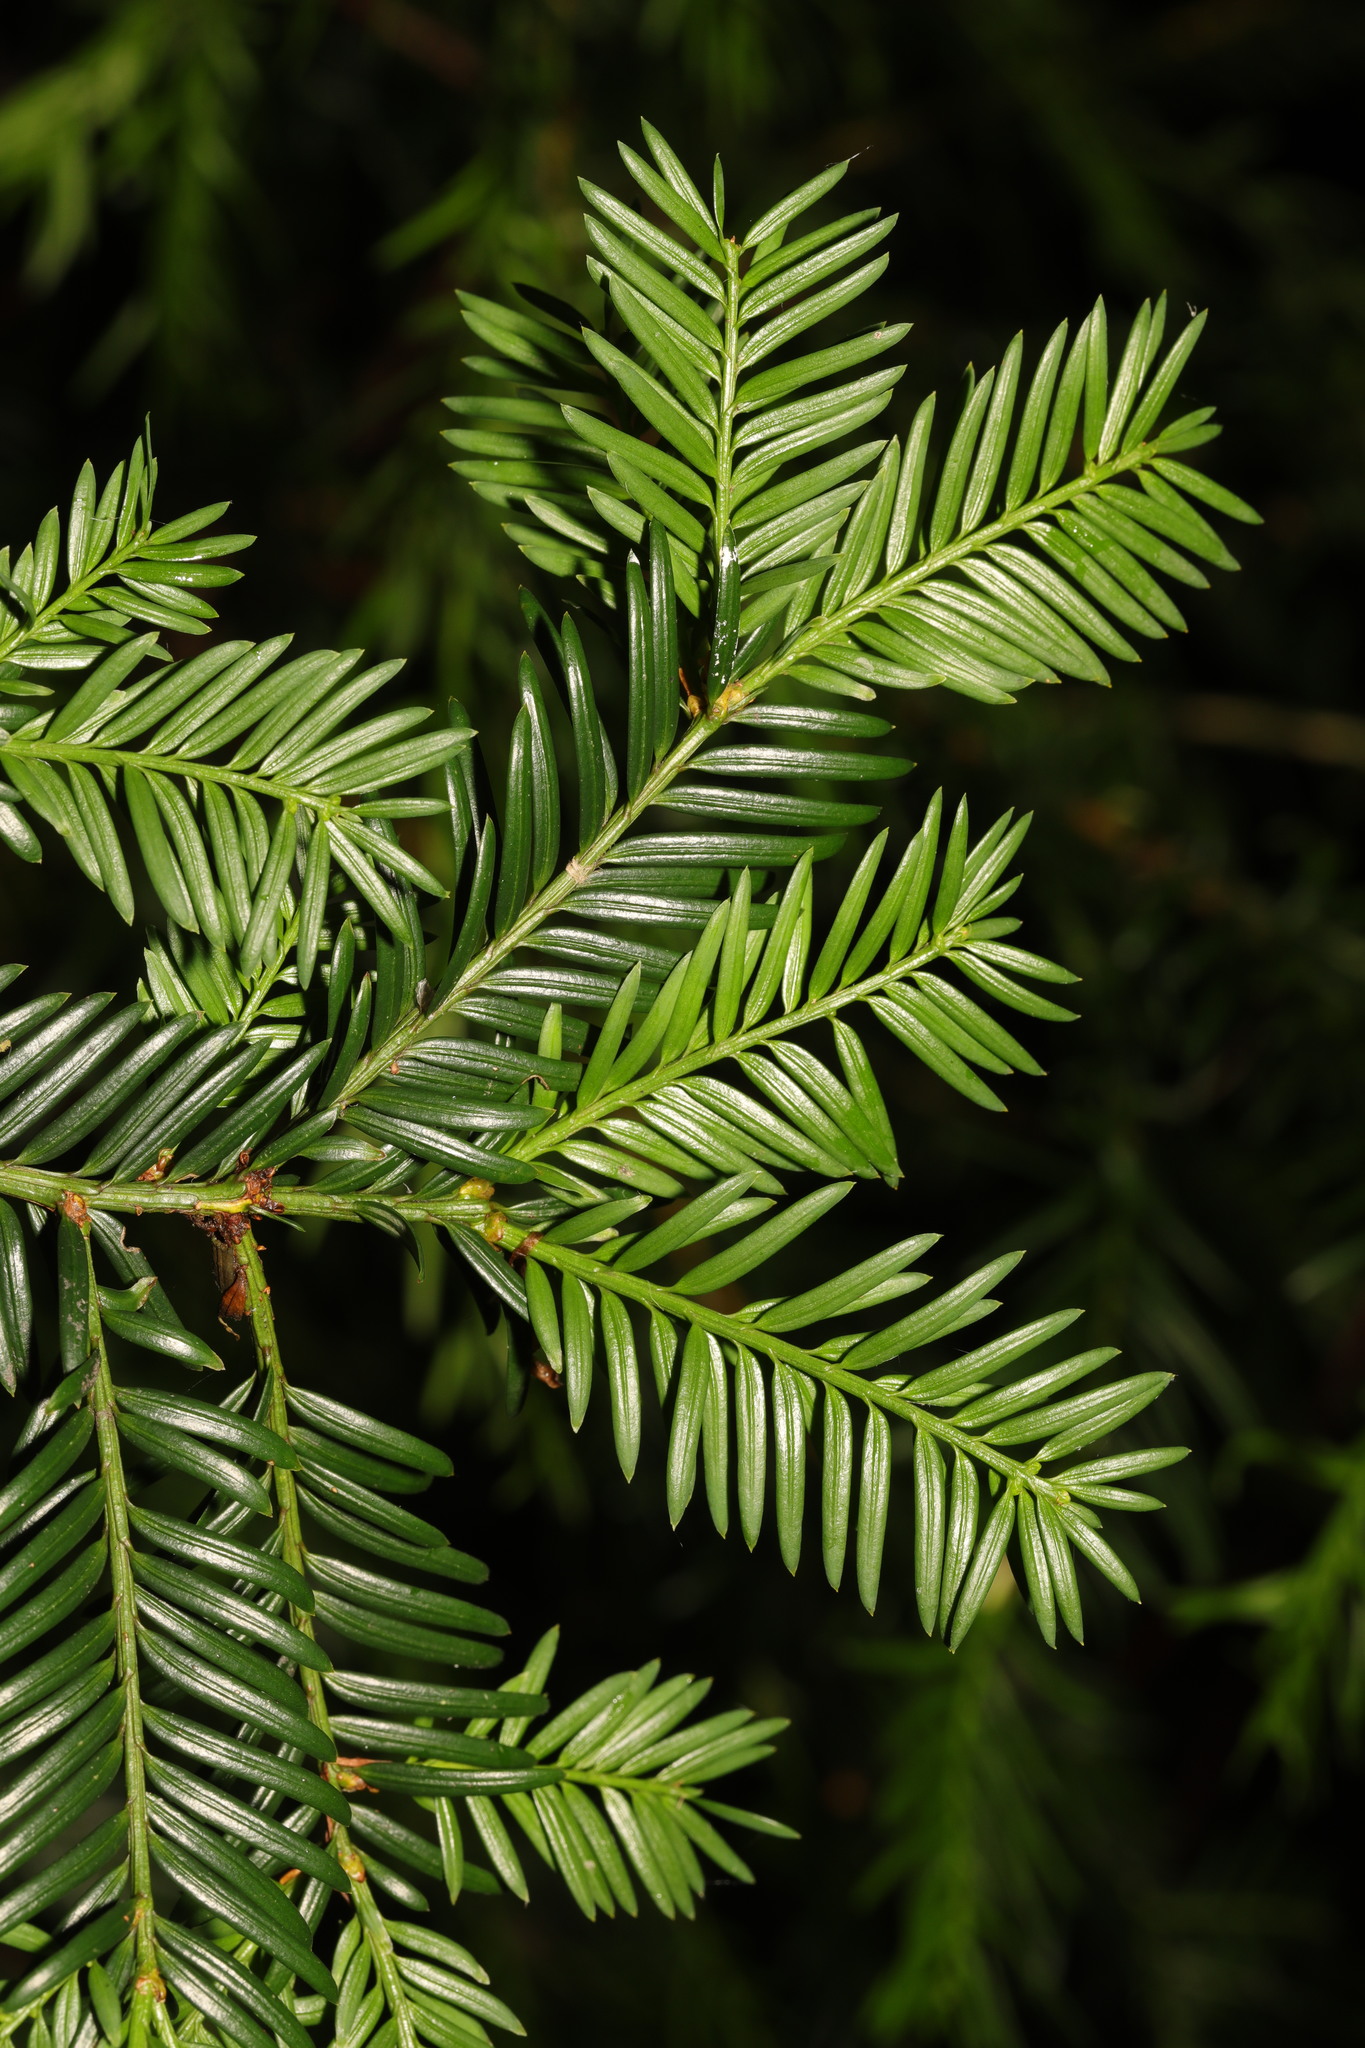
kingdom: Plantae
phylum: Tracheophyta
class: Pinopsida
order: Pinales
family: Taxaceae
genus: Taxus
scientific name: Taxus baccata
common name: Yew
